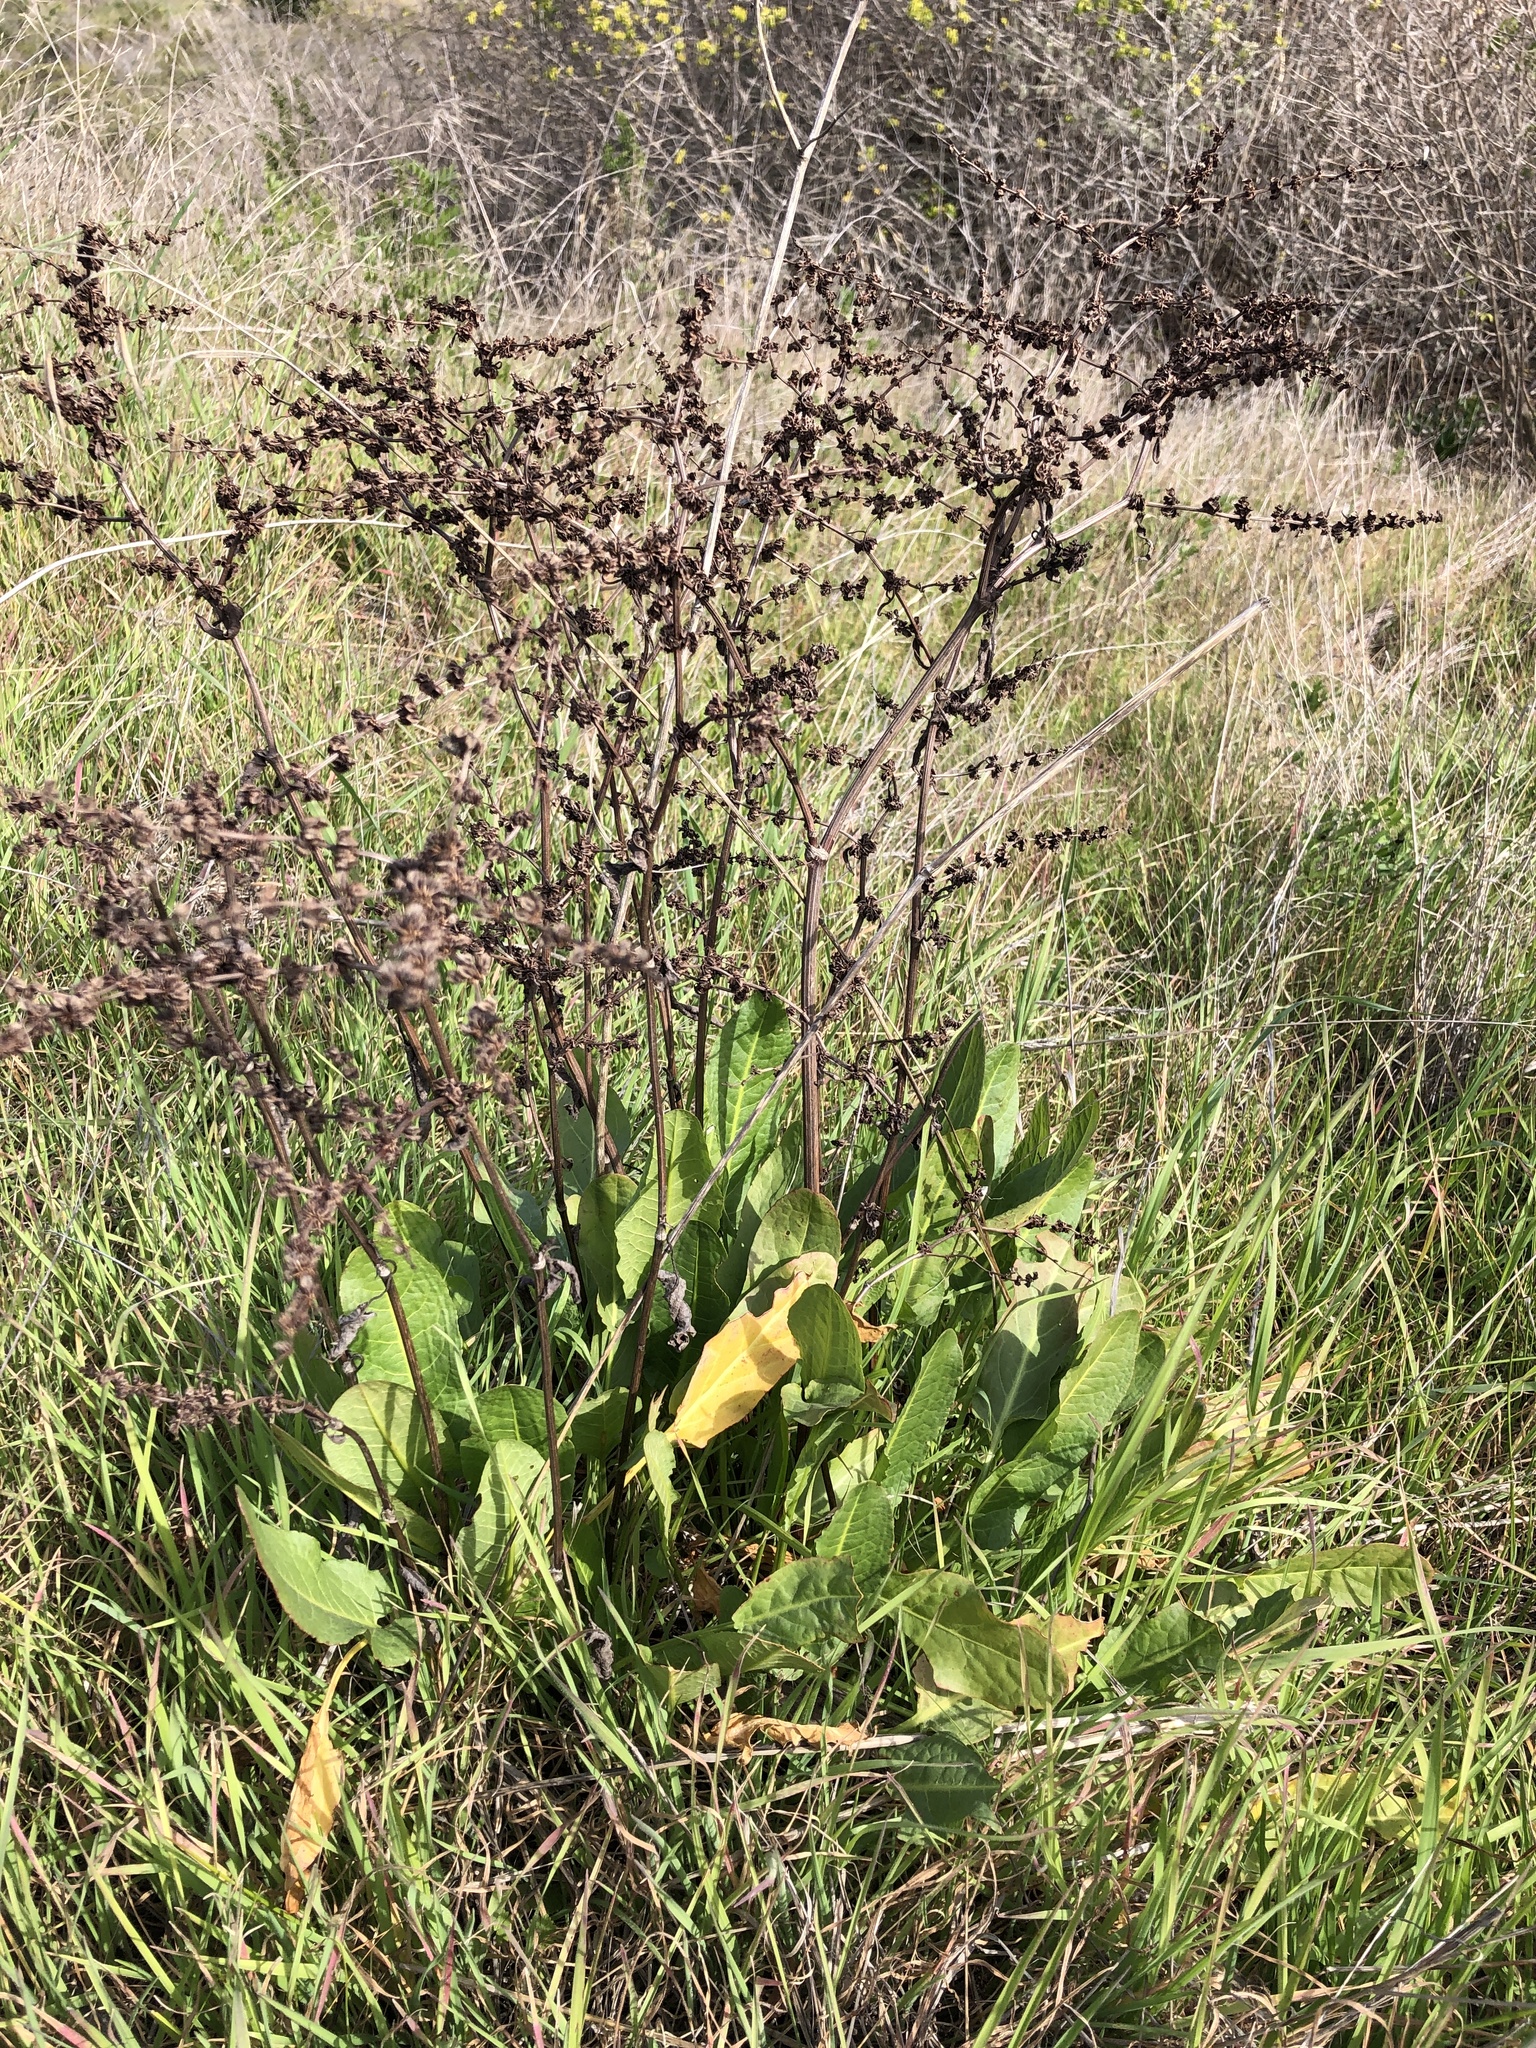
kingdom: Plantae
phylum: Tracheophyta
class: Magnoliopsida
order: Caryophyllales
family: Polygonaceae
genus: Rumex
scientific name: Rumex pulcher
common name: Fiddle dock
